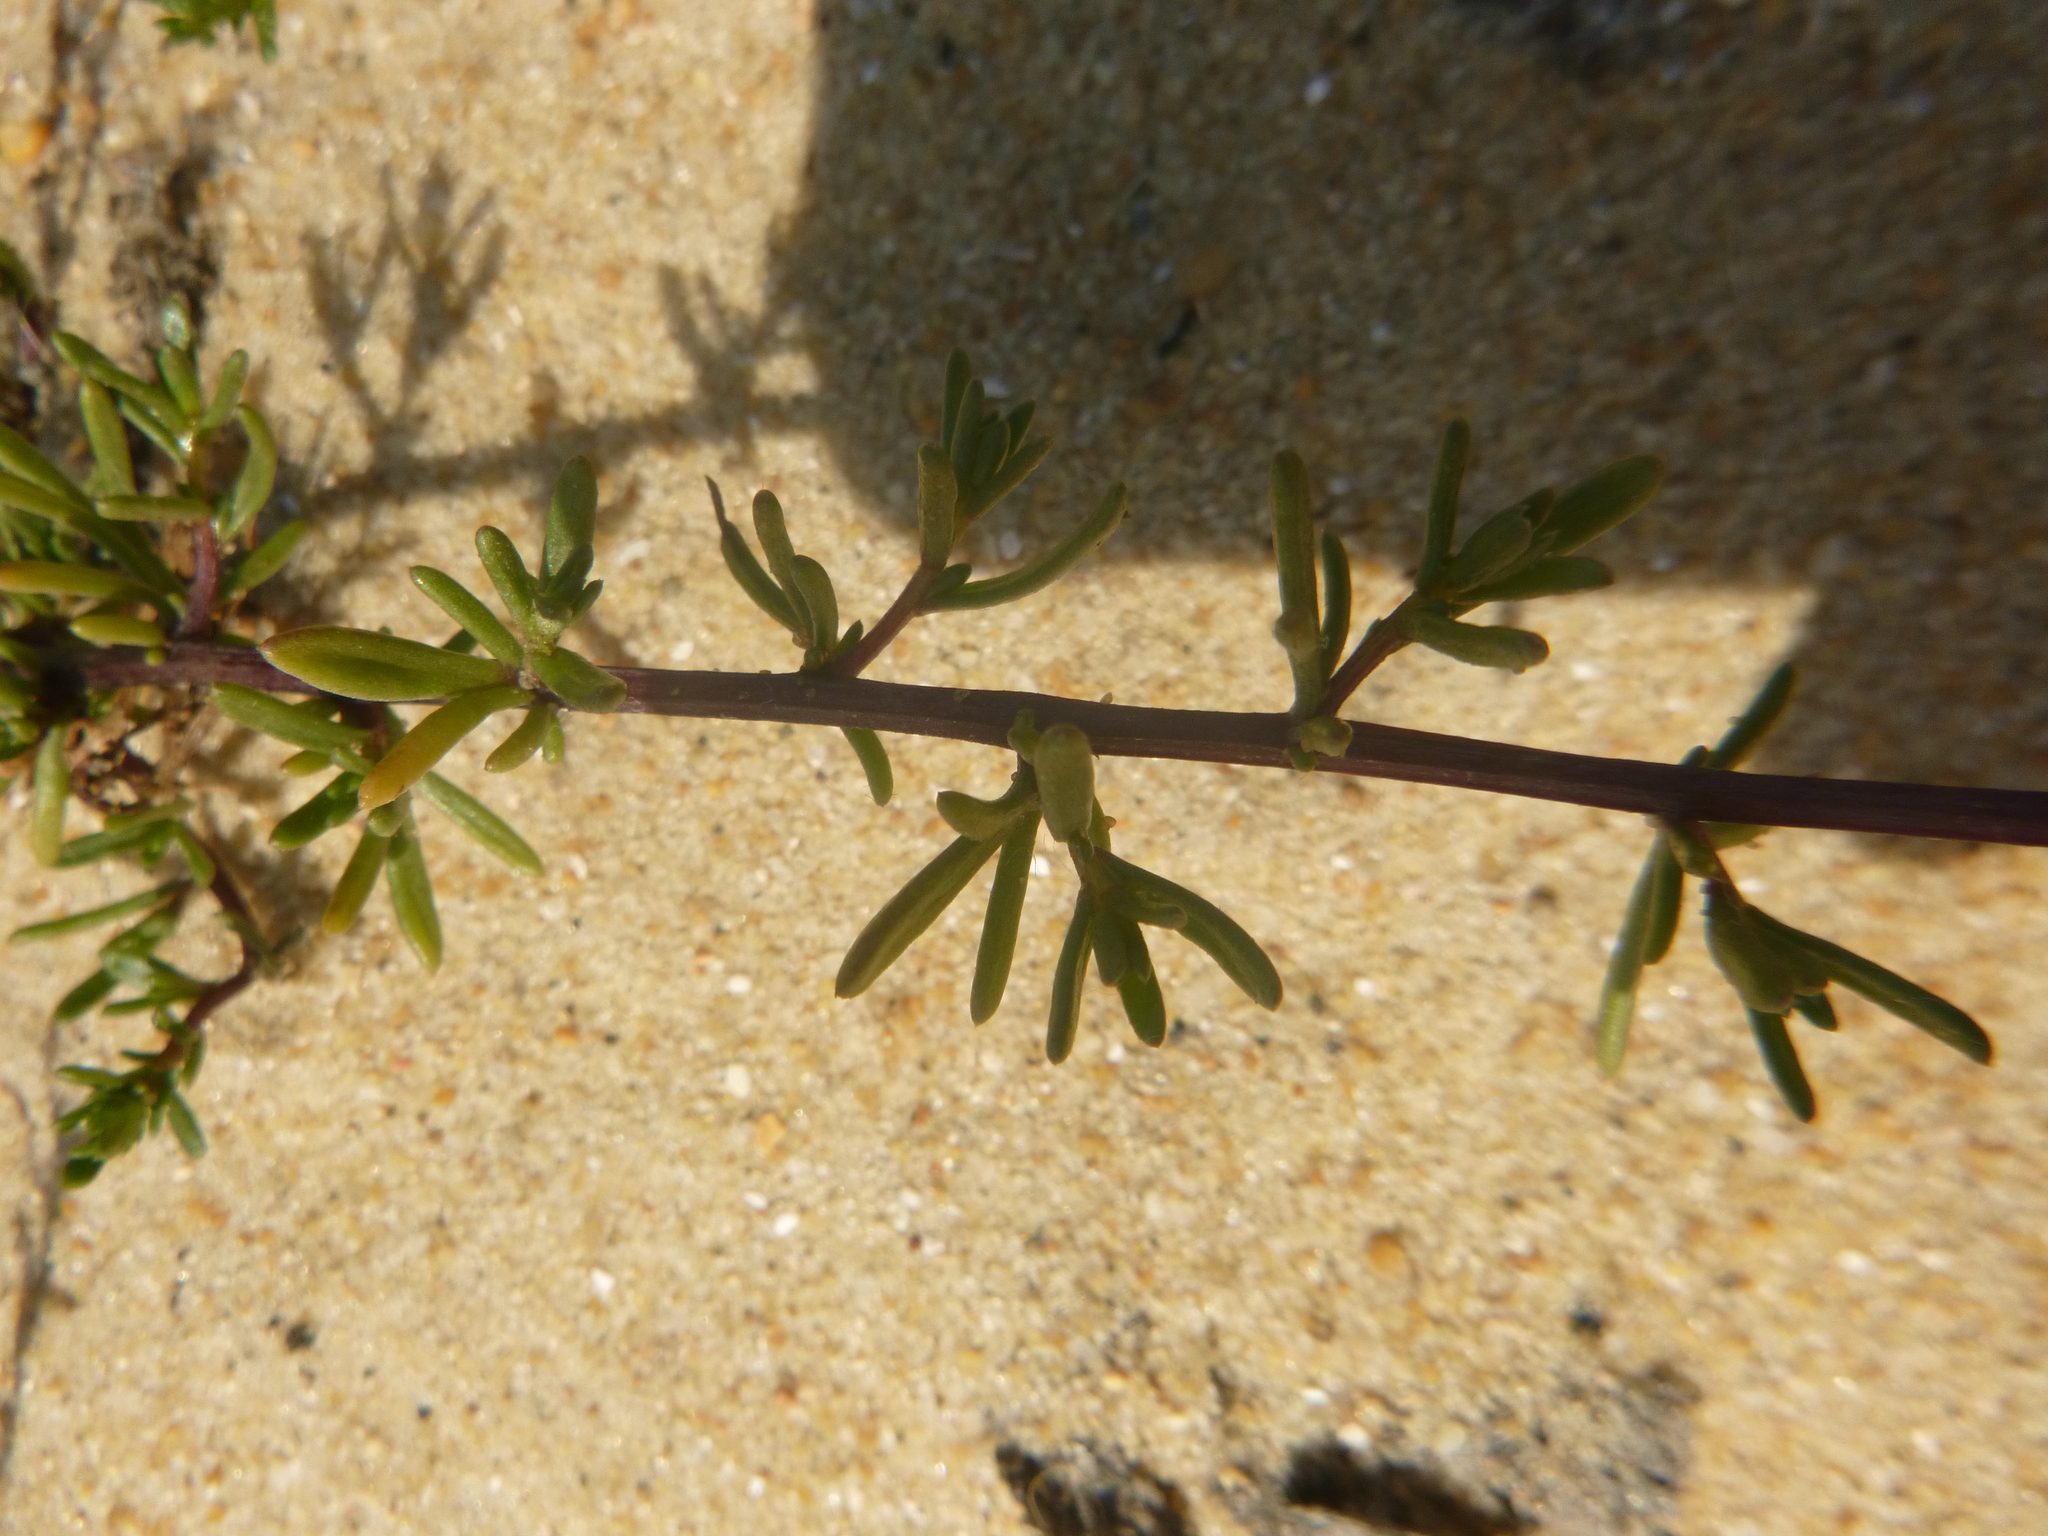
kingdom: Plantae
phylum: Tracheophyta
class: Magnoliopsida
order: Asterales
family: Asteraceae
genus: Artemisia
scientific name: Artemisia crithmifolia
